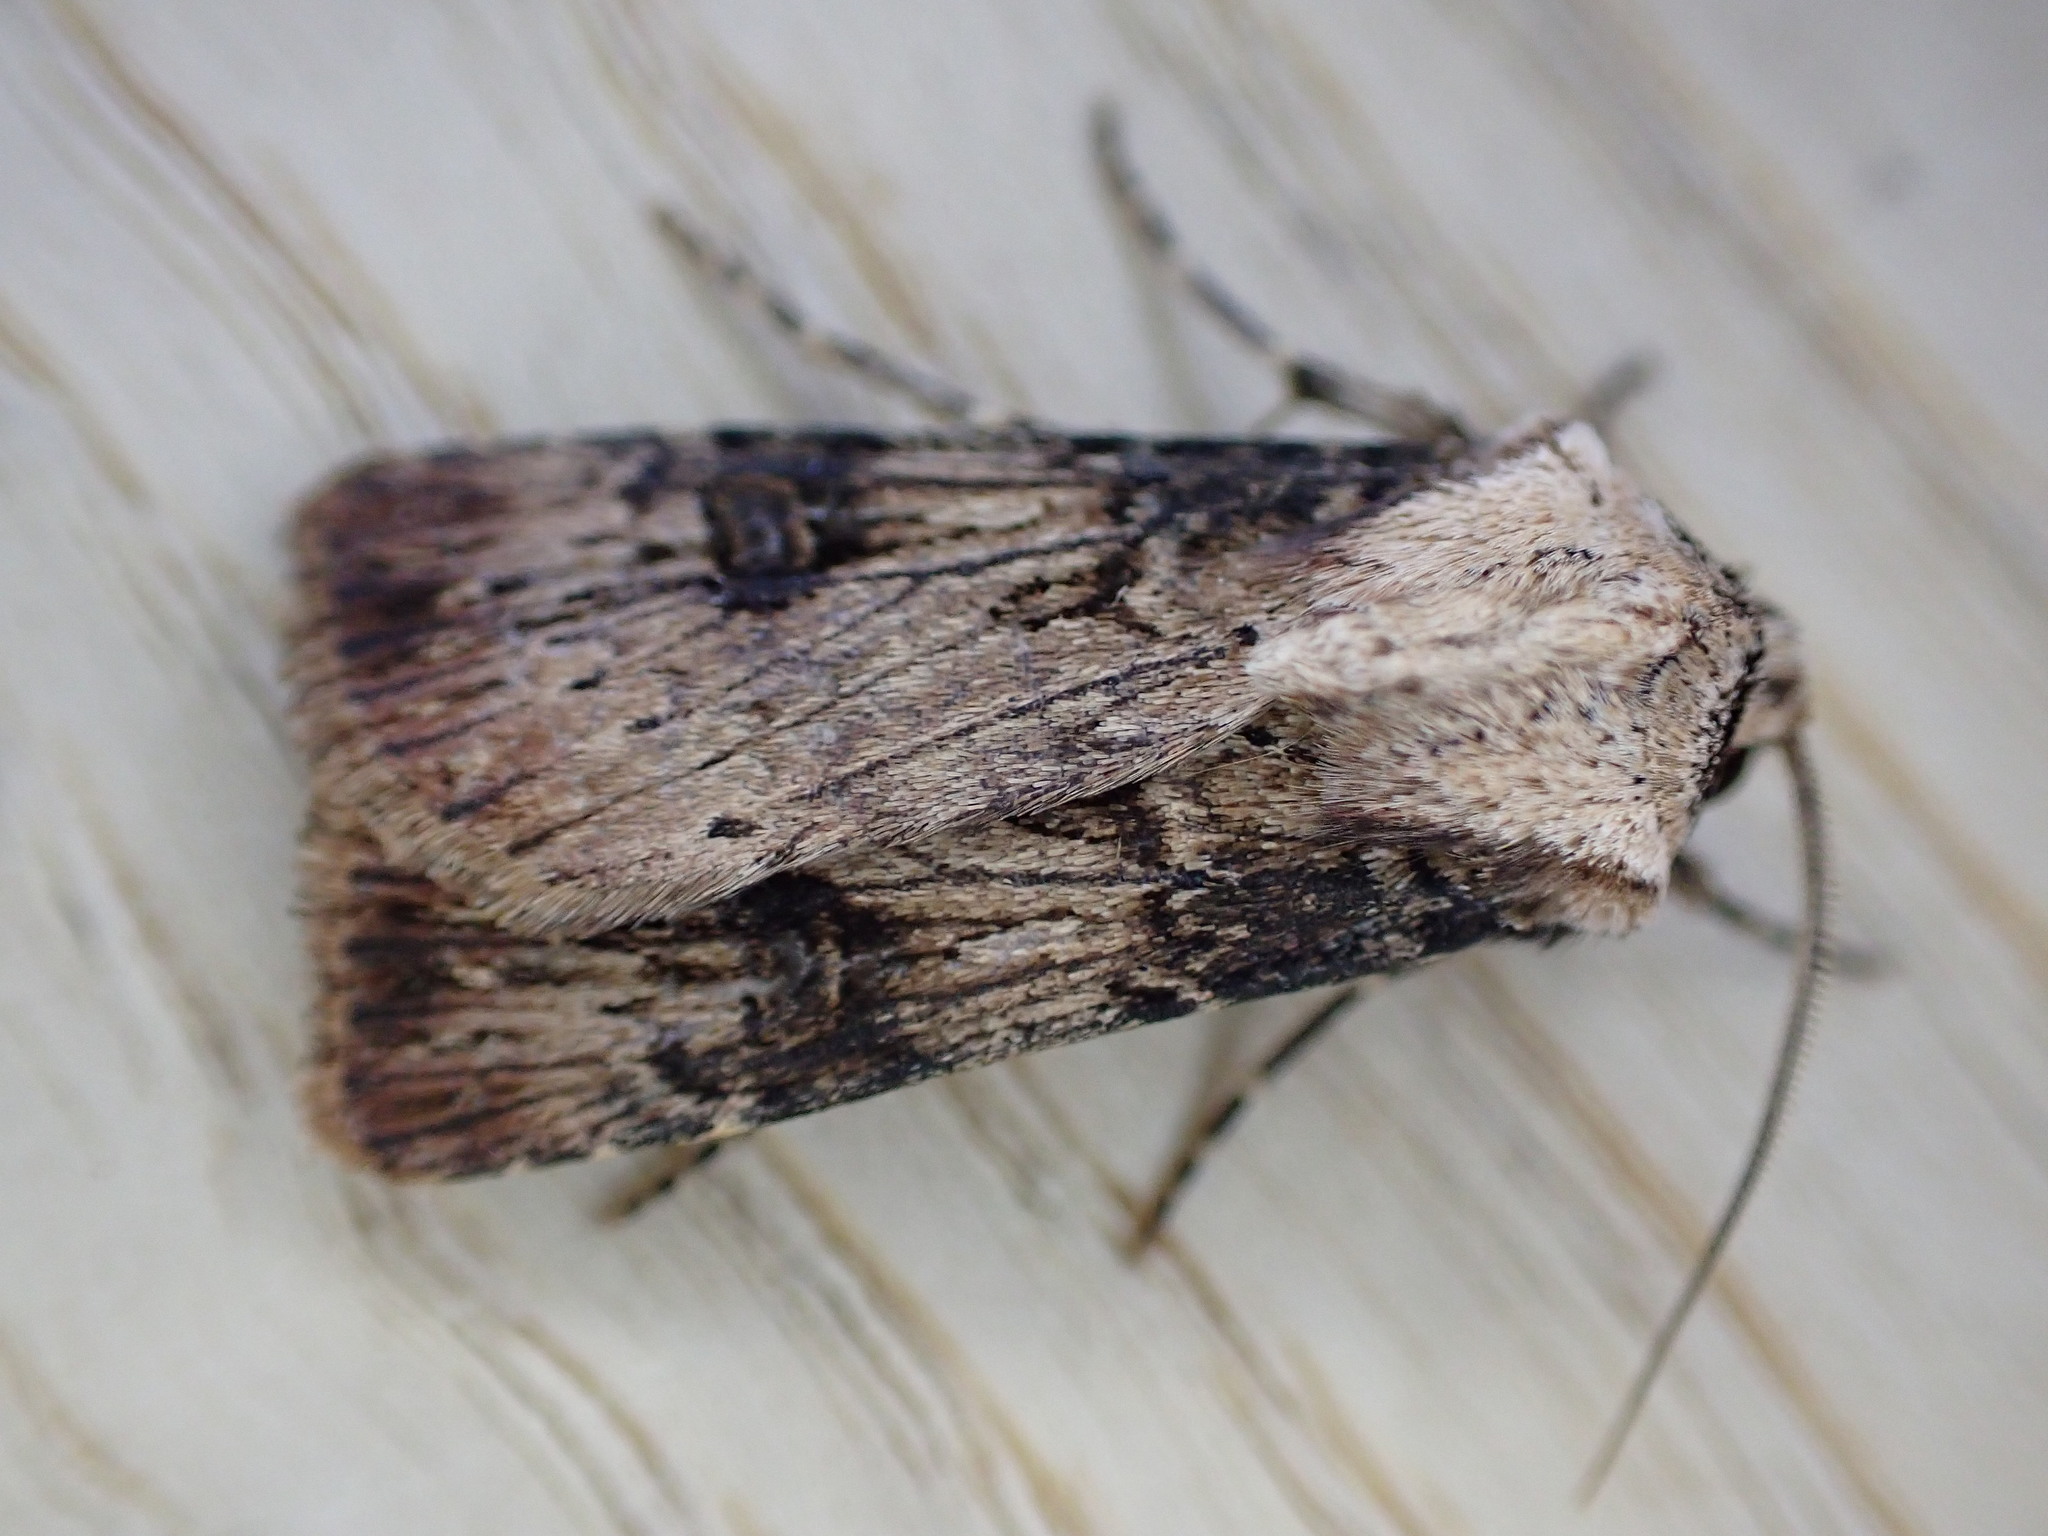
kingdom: Animalia
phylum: Arthropoda
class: Insecta
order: Lepidoptera
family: Noctuidae
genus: Agrotis
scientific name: Agrotis puta
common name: Shuttle-shaped dart
